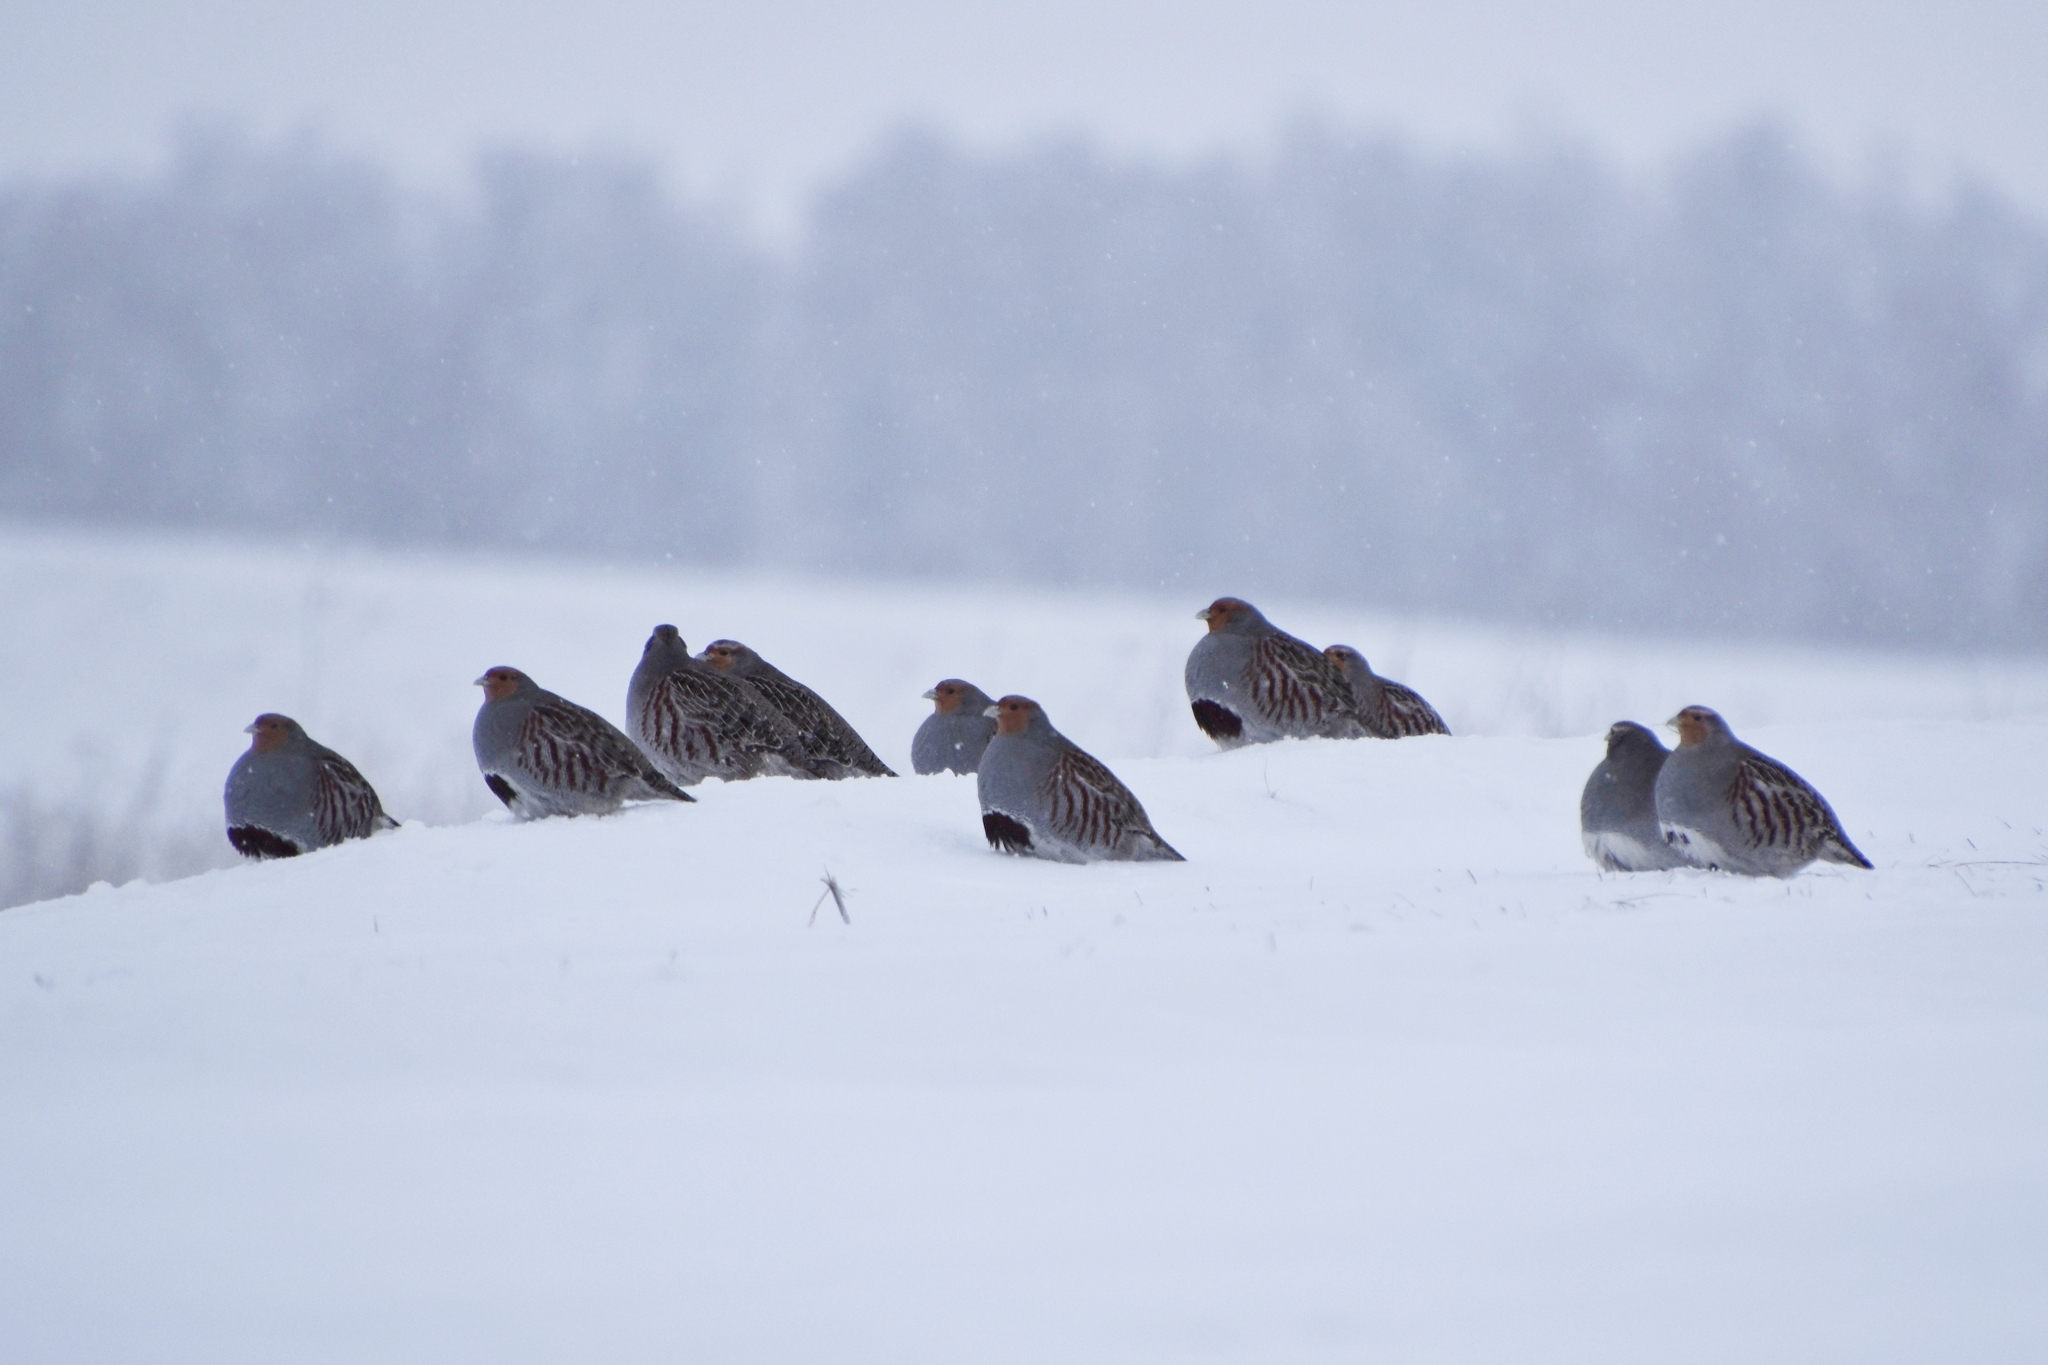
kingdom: Animalia
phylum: Chordata
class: Aves
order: Galliformes
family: Phasianidae
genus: Perdix
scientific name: Perdix perdix
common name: Grey partridge
